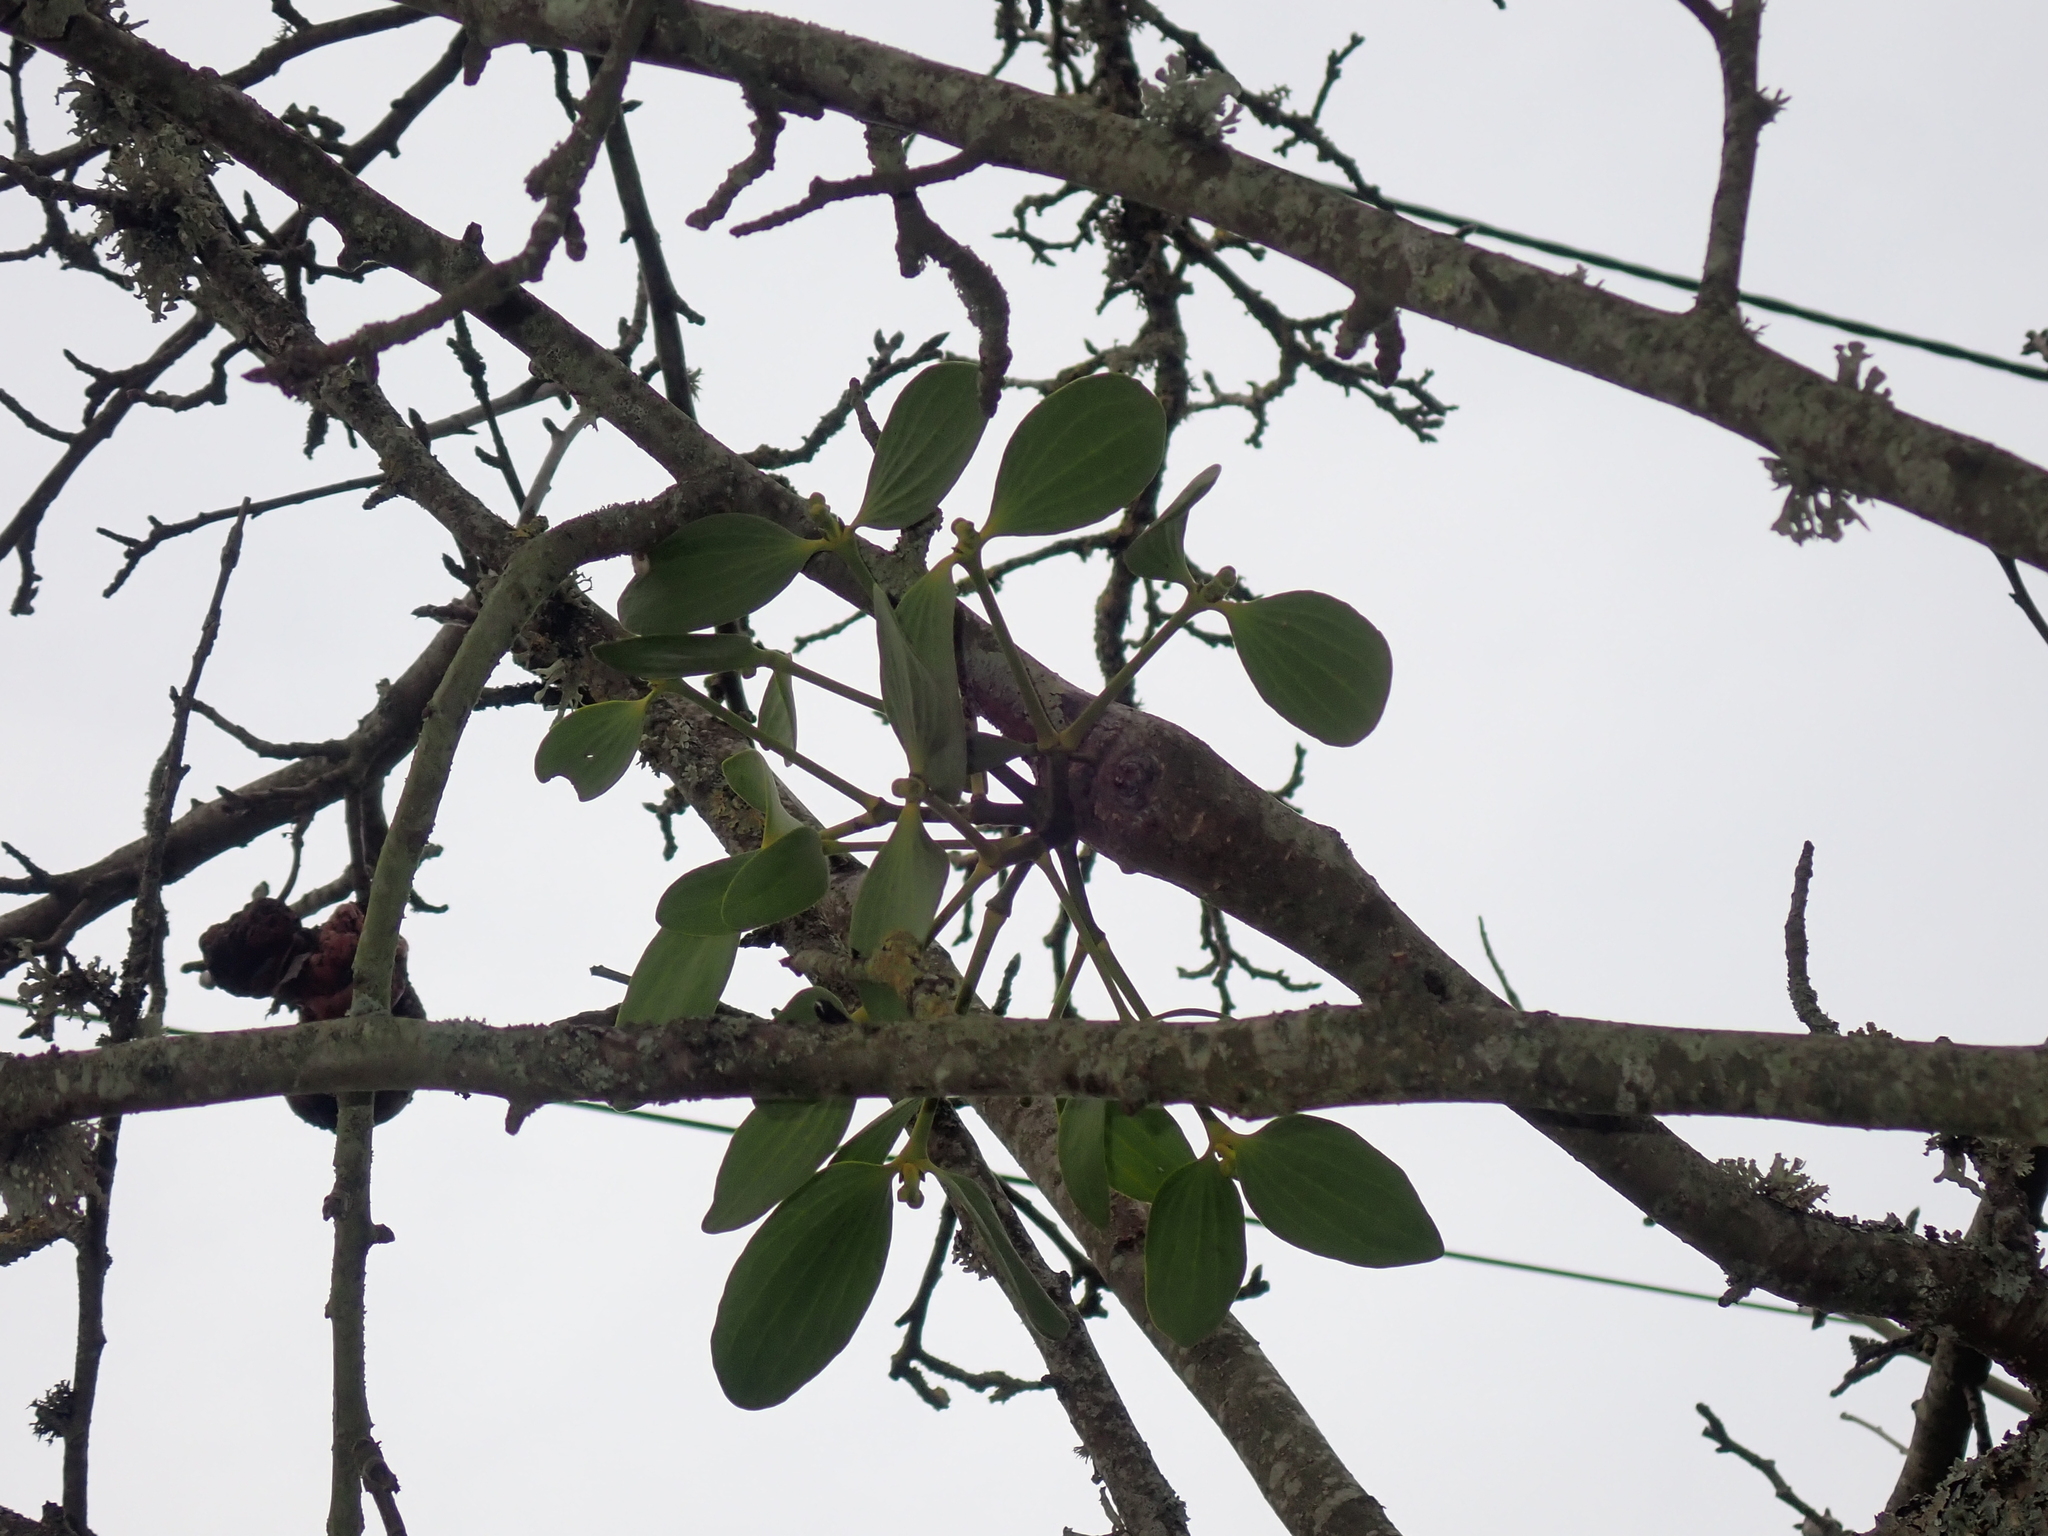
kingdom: Plantae
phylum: Tracheophyta
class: Magnoliopsida
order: Santalales
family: Viscaceae
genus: Viscum
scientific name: Viscum album
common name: Mistletoe
